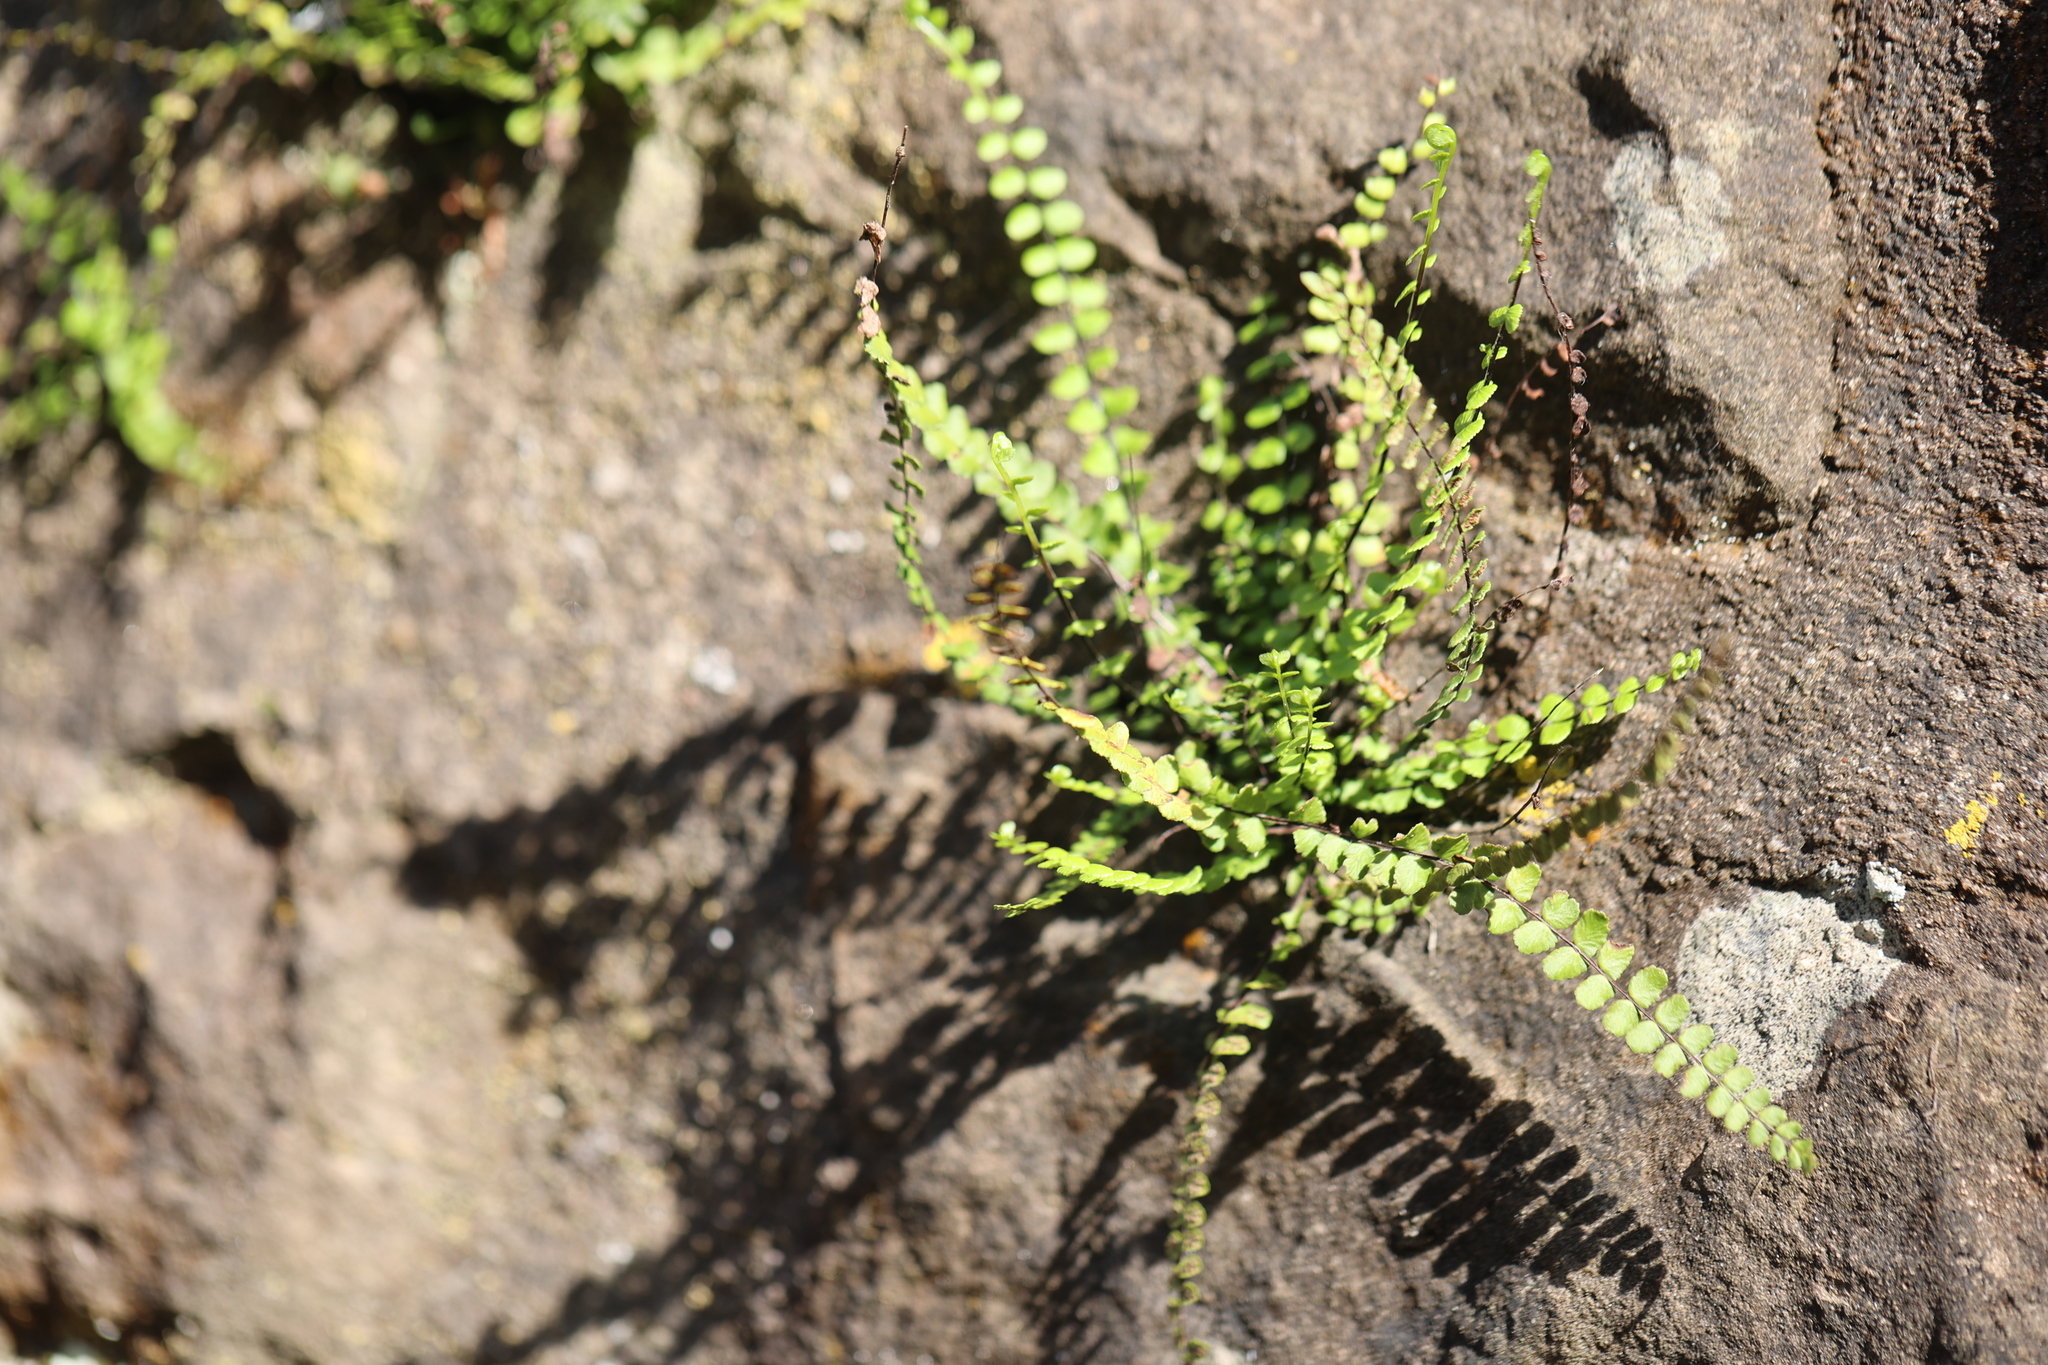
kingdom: Plantae
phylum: Tracheophyta
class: Polypodiopsida
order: Polypodiales
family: Aspleniaceae
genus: Asplenium
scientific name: Asplenium trichomanes
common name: Maidenhair spleenwort
